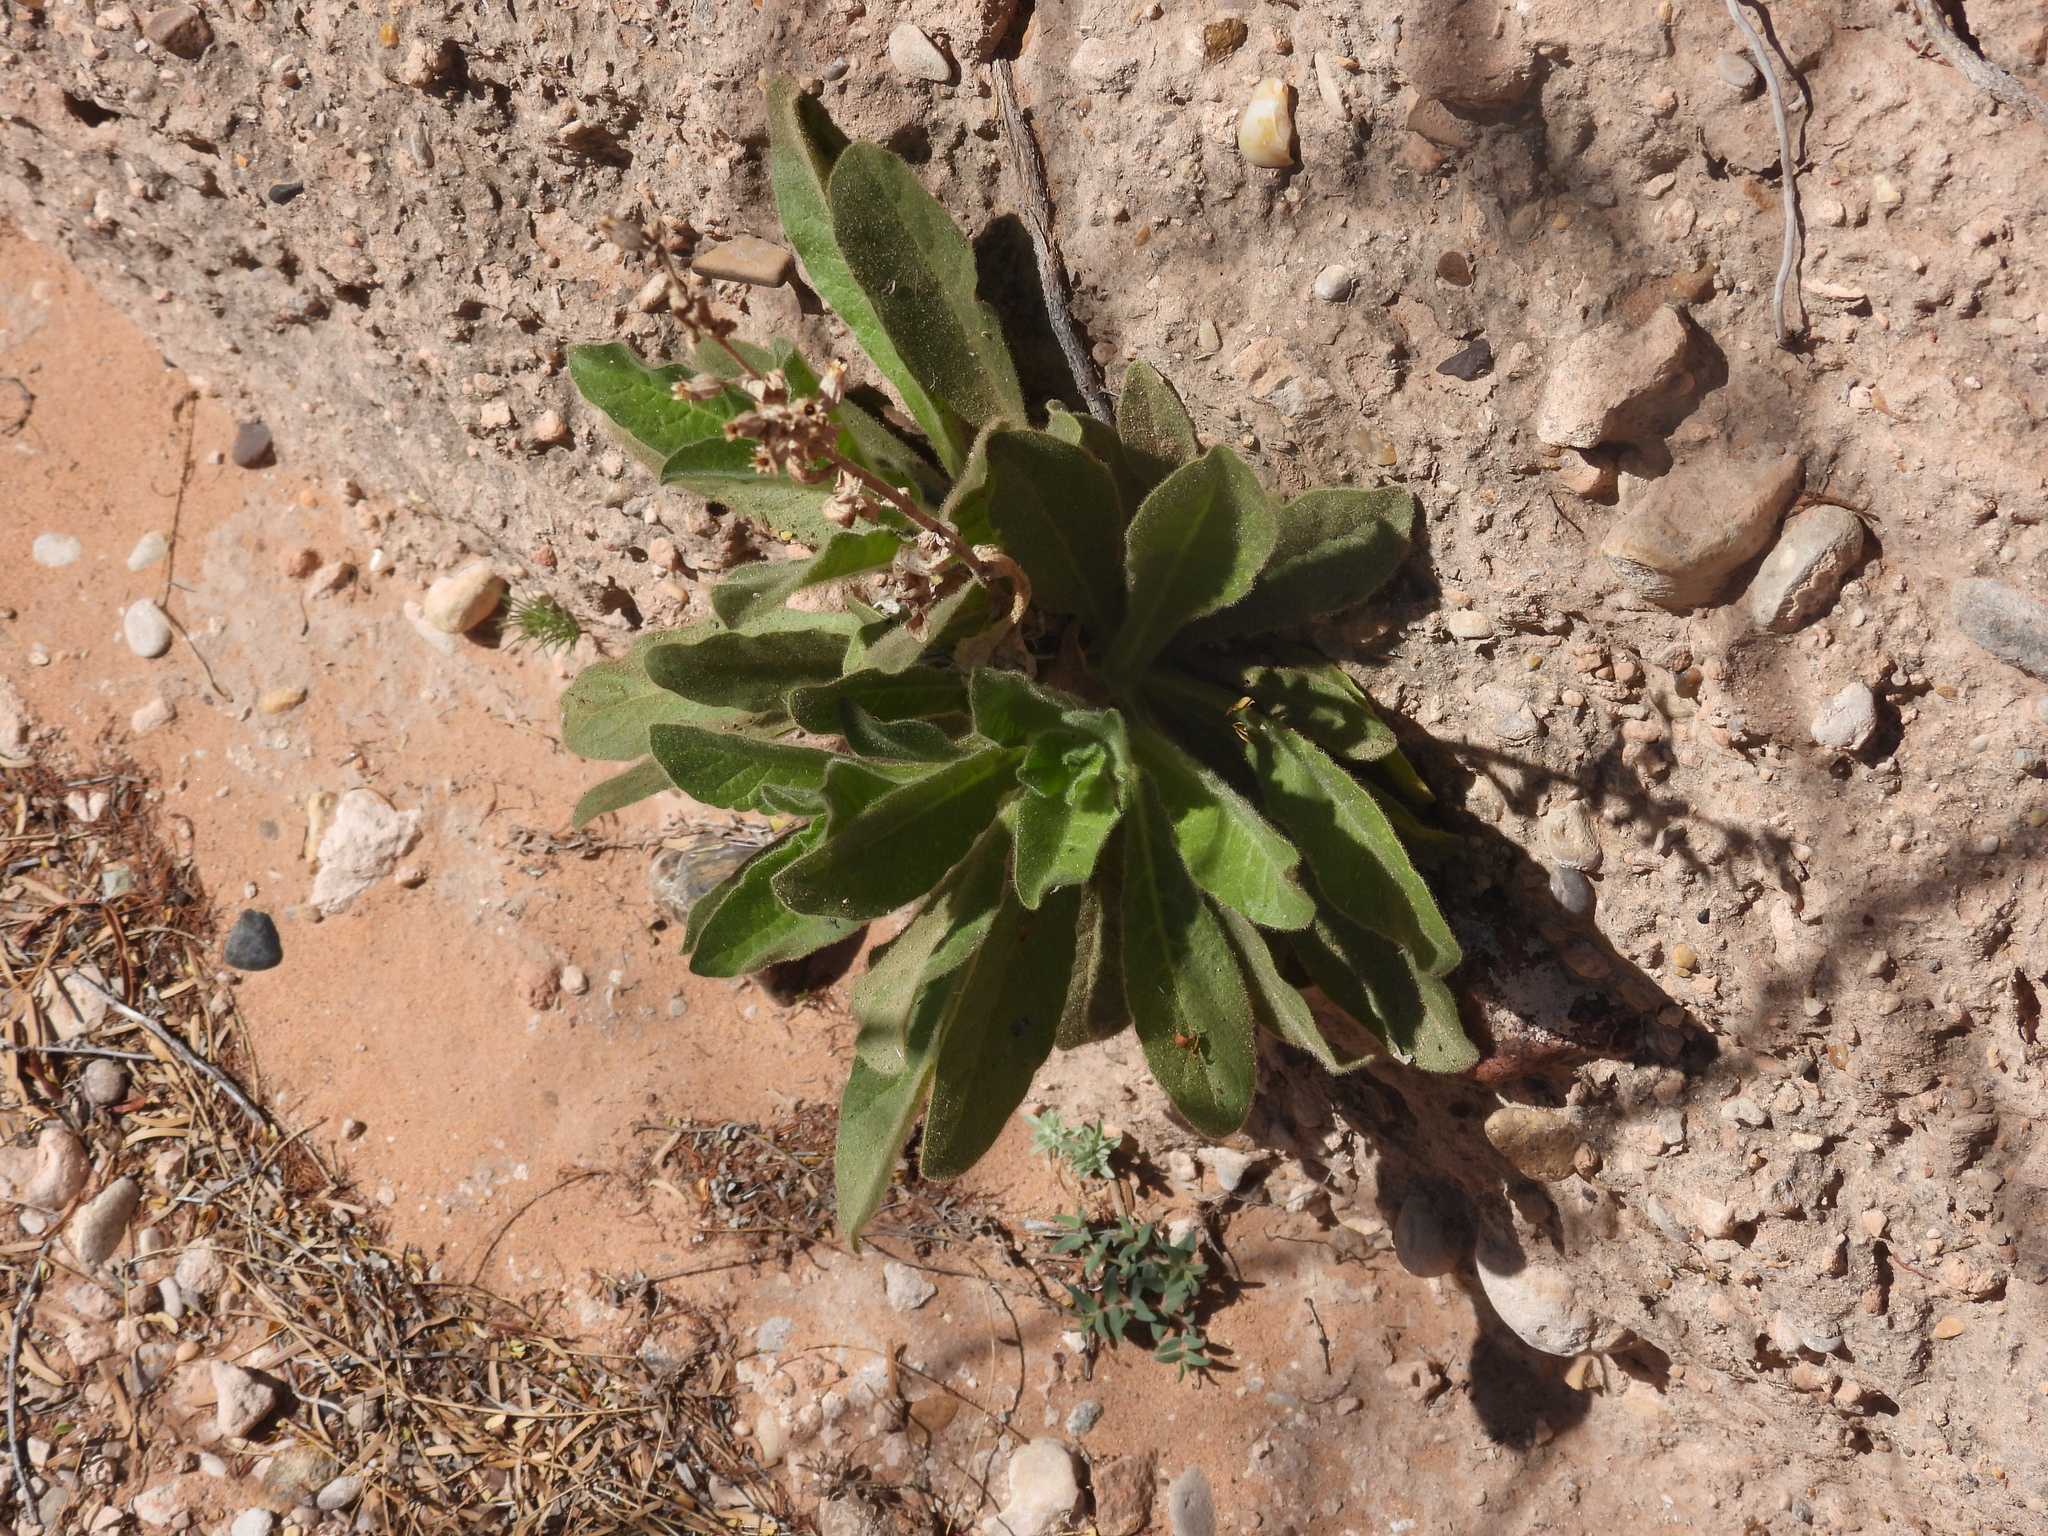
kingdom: Plantae
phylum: Tracheophyta
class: Magnoliopsida
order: Solanales
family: Solanaceae
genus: Nicotiana
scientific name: Nicotiana obtusifolia
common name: Desert tobacco
